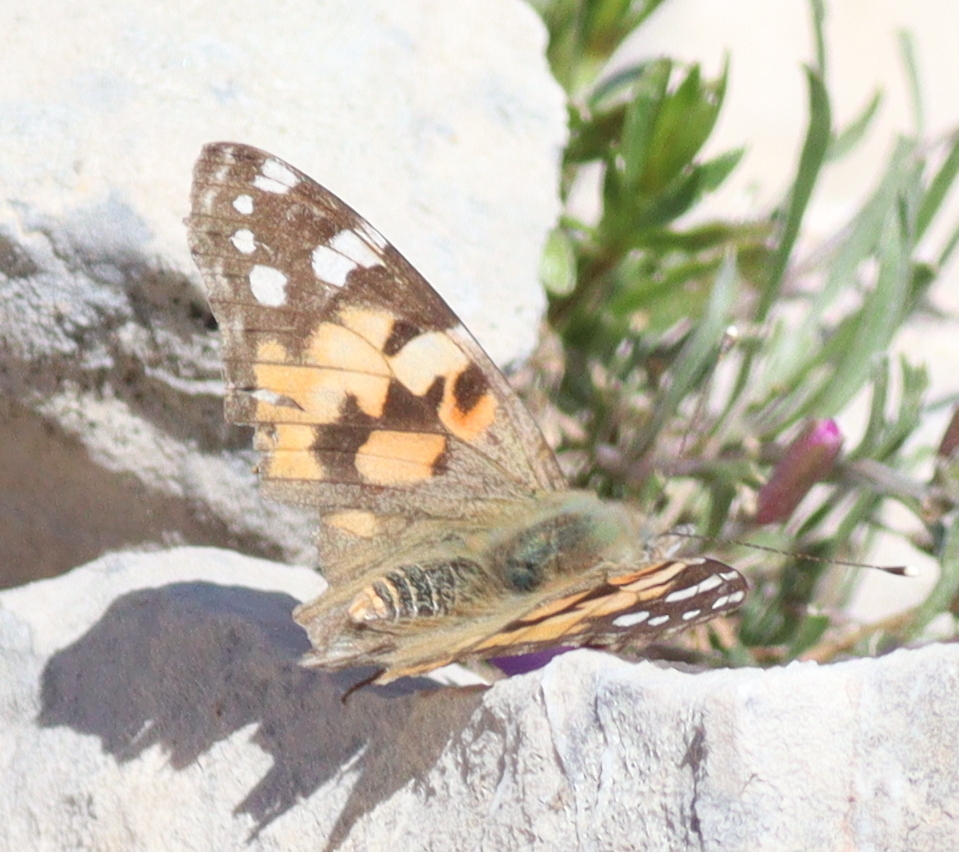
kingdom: Animalia
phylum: Arthropoda
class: Insecta
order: Lepidoptera
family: Nymphalidae
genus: Vanessa
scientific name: Vanessa cardui
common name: Painted lady
